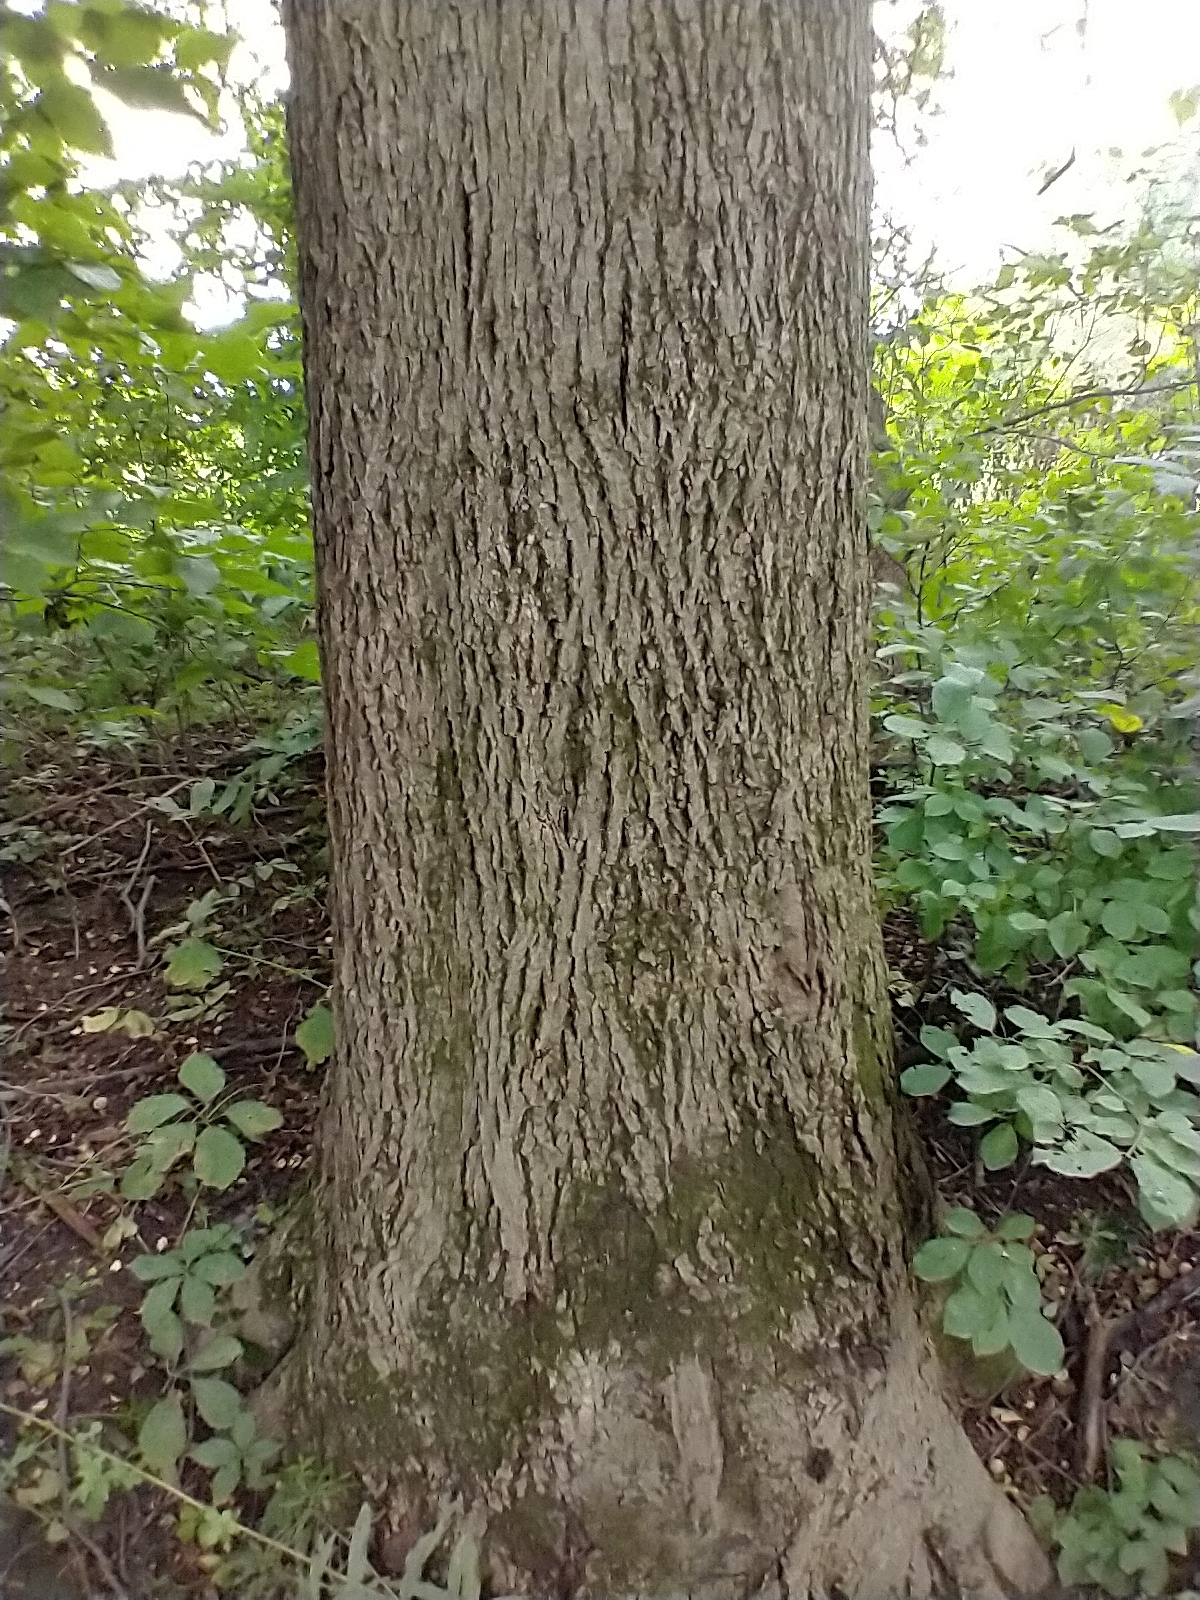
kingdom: Plantae
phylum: Tracheophyta
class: Magnoliopsida
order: Fagales
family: Juglandaceae
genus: Carya
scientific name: Carya cordiformis
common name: Bitternut hickory
